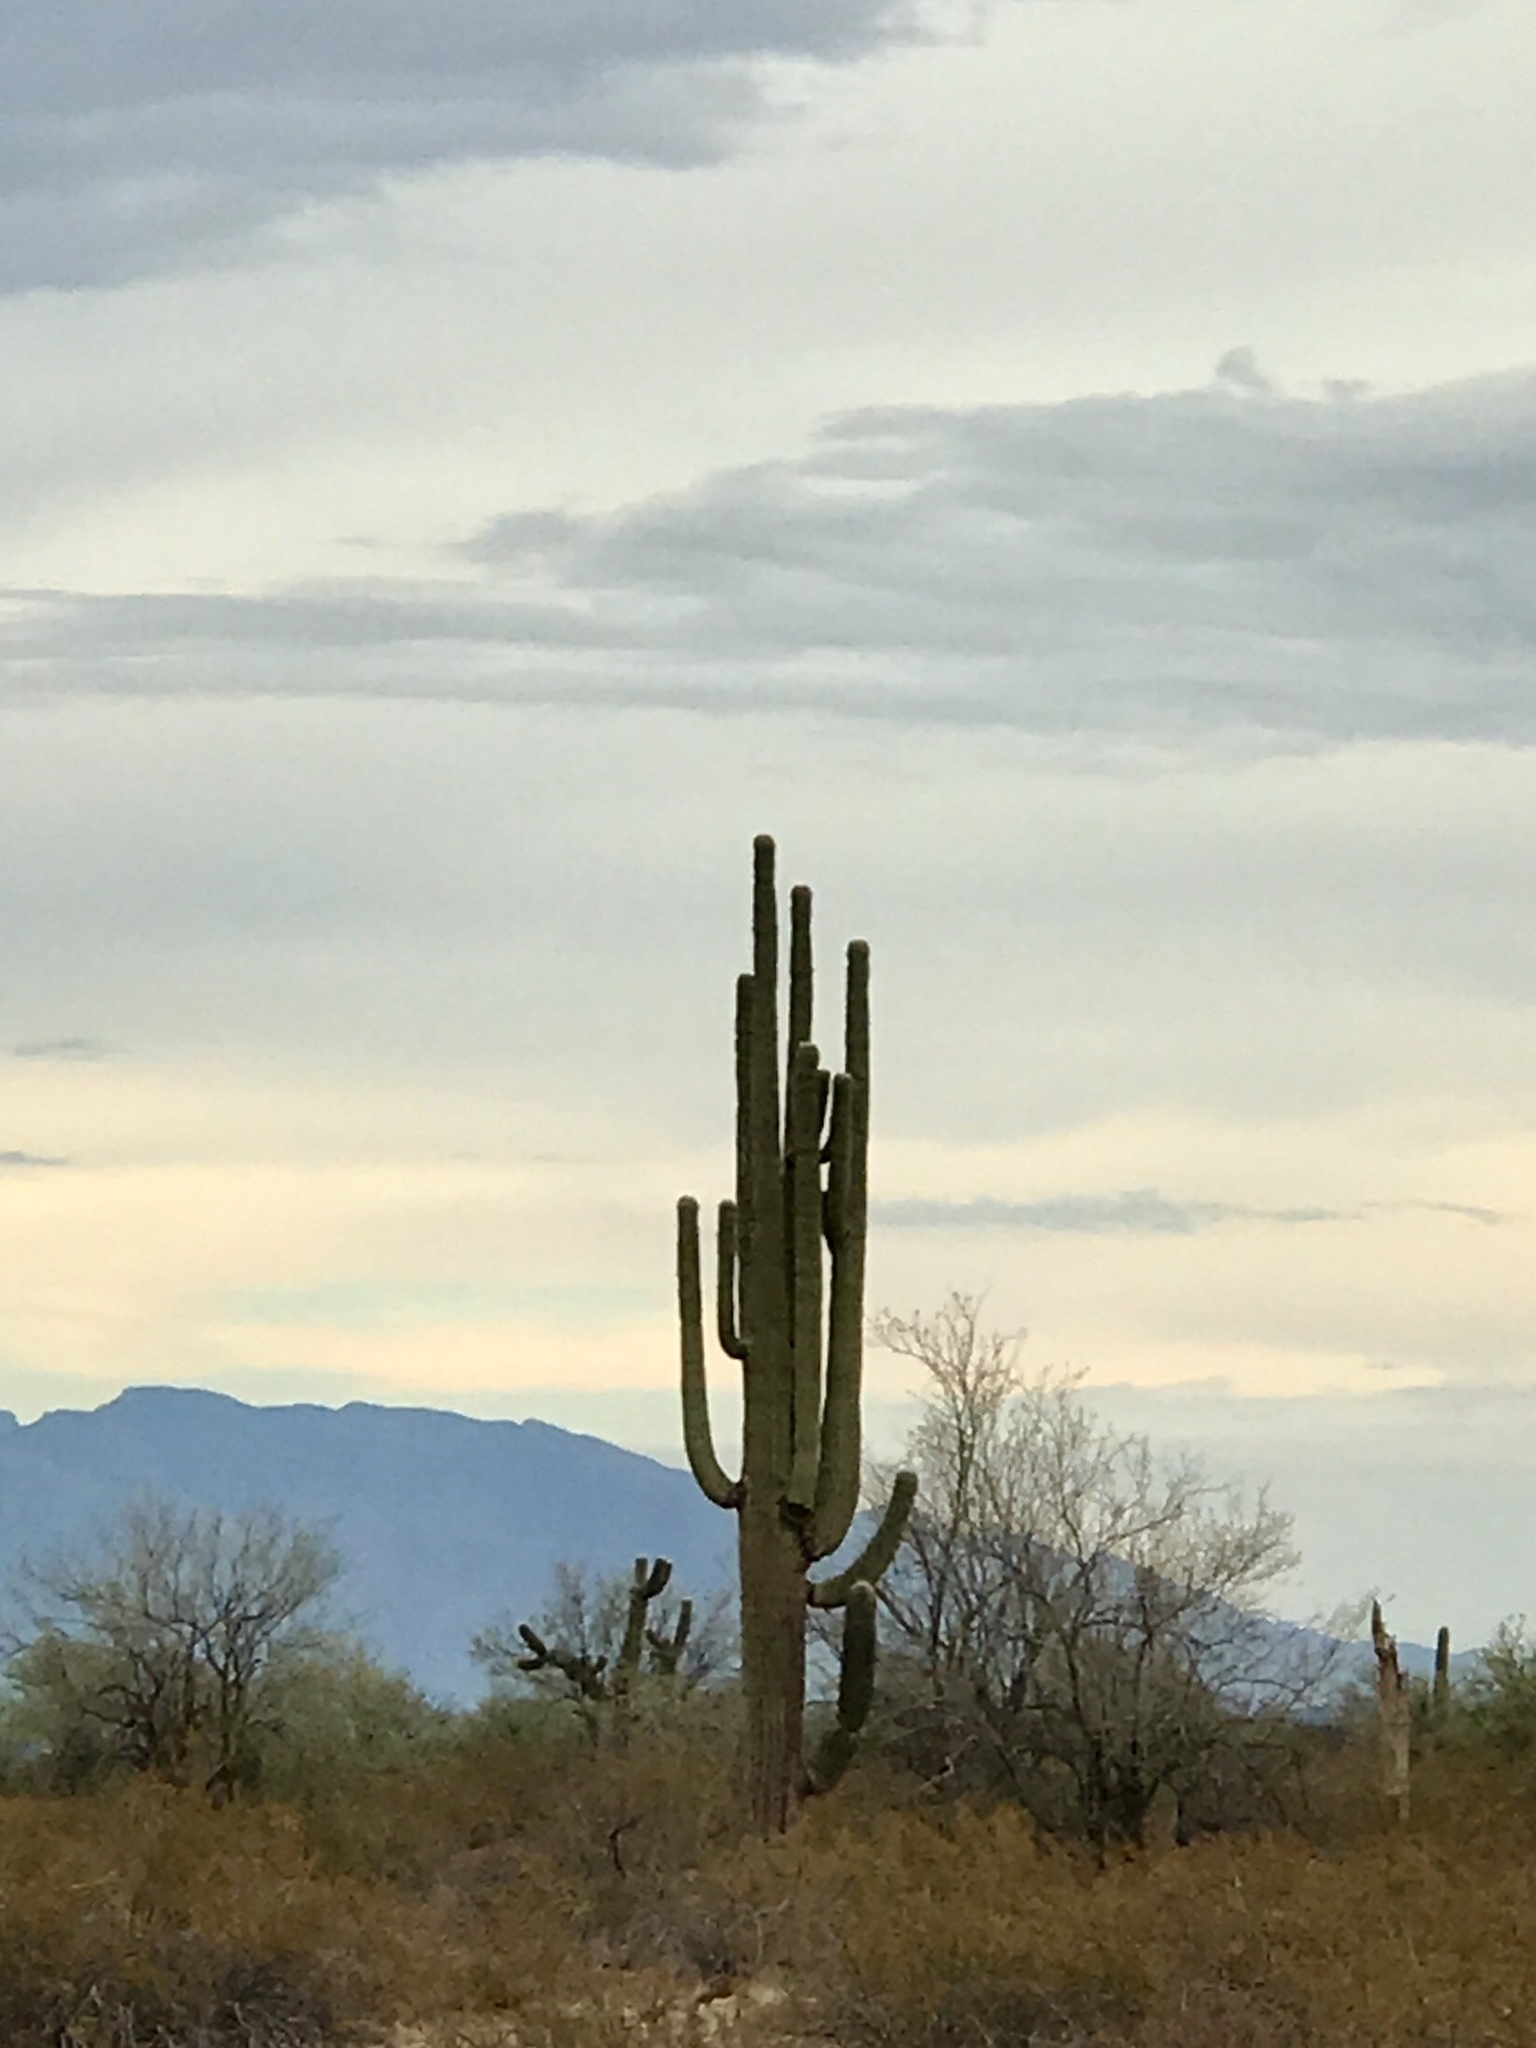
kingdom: Plantae
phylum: Tracheophyta
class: Magnoliopsida
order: Caryophyllales
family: Cactaceae
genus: Carnegiea
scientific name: Carnegiea gigantea
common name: Saguaro
